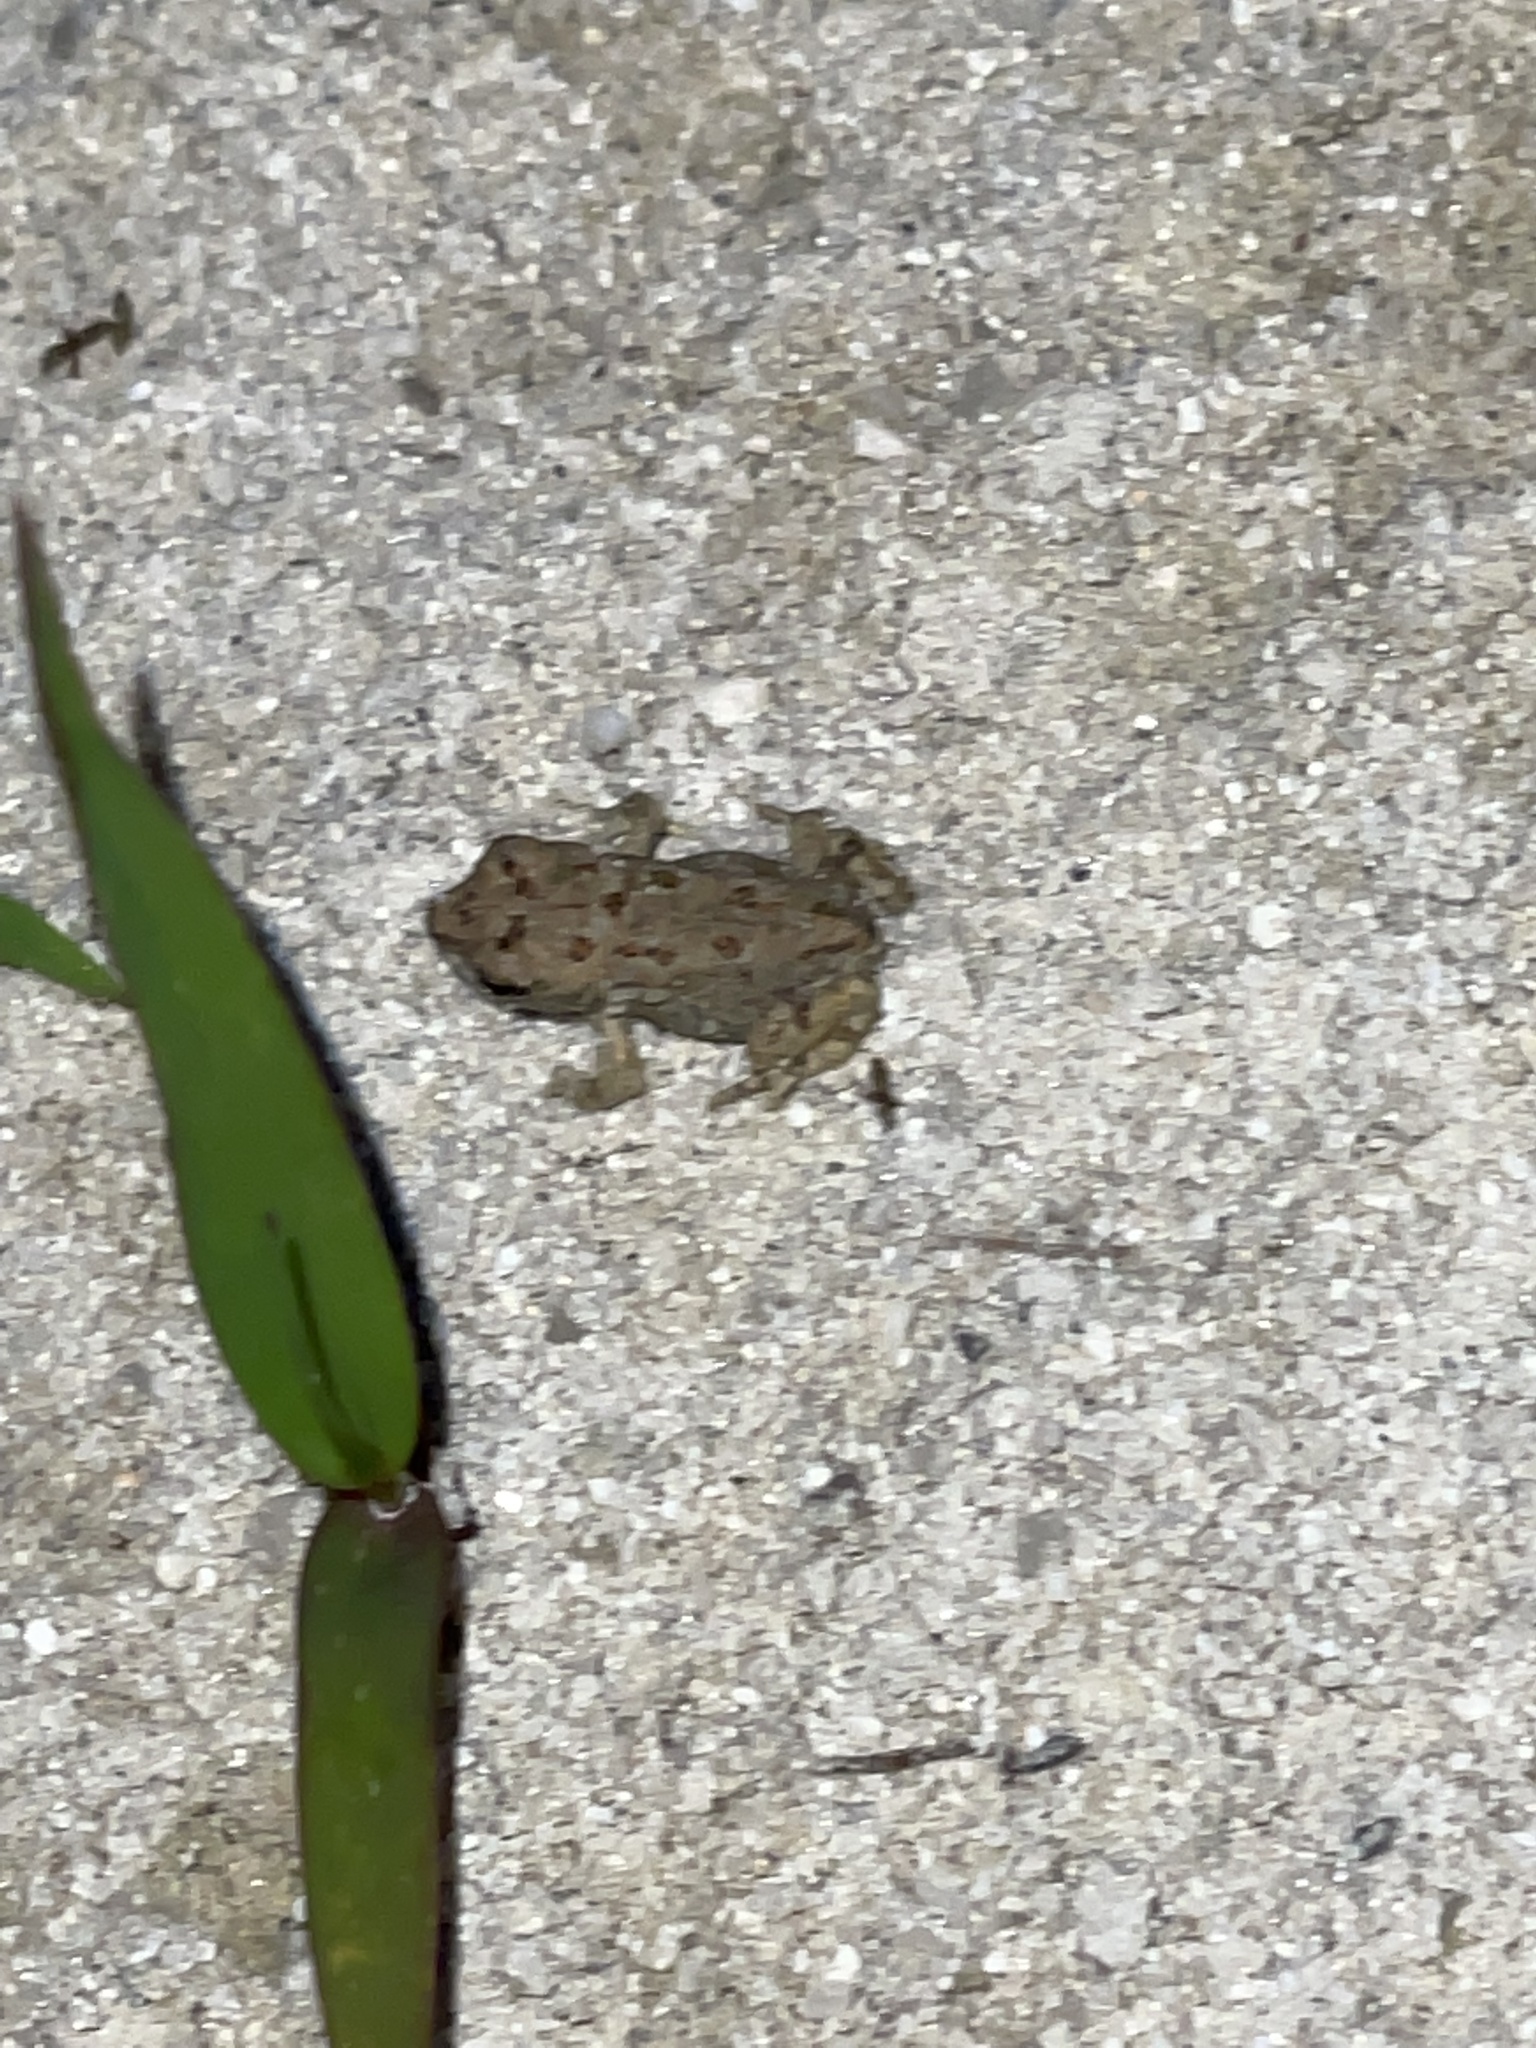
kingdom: Animalia
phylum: Chordata
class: Amphibia
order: Anura
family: Bufonidae
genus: Anaxyrus
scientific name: Anaxyrus fowleri
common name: Fowler's toad
